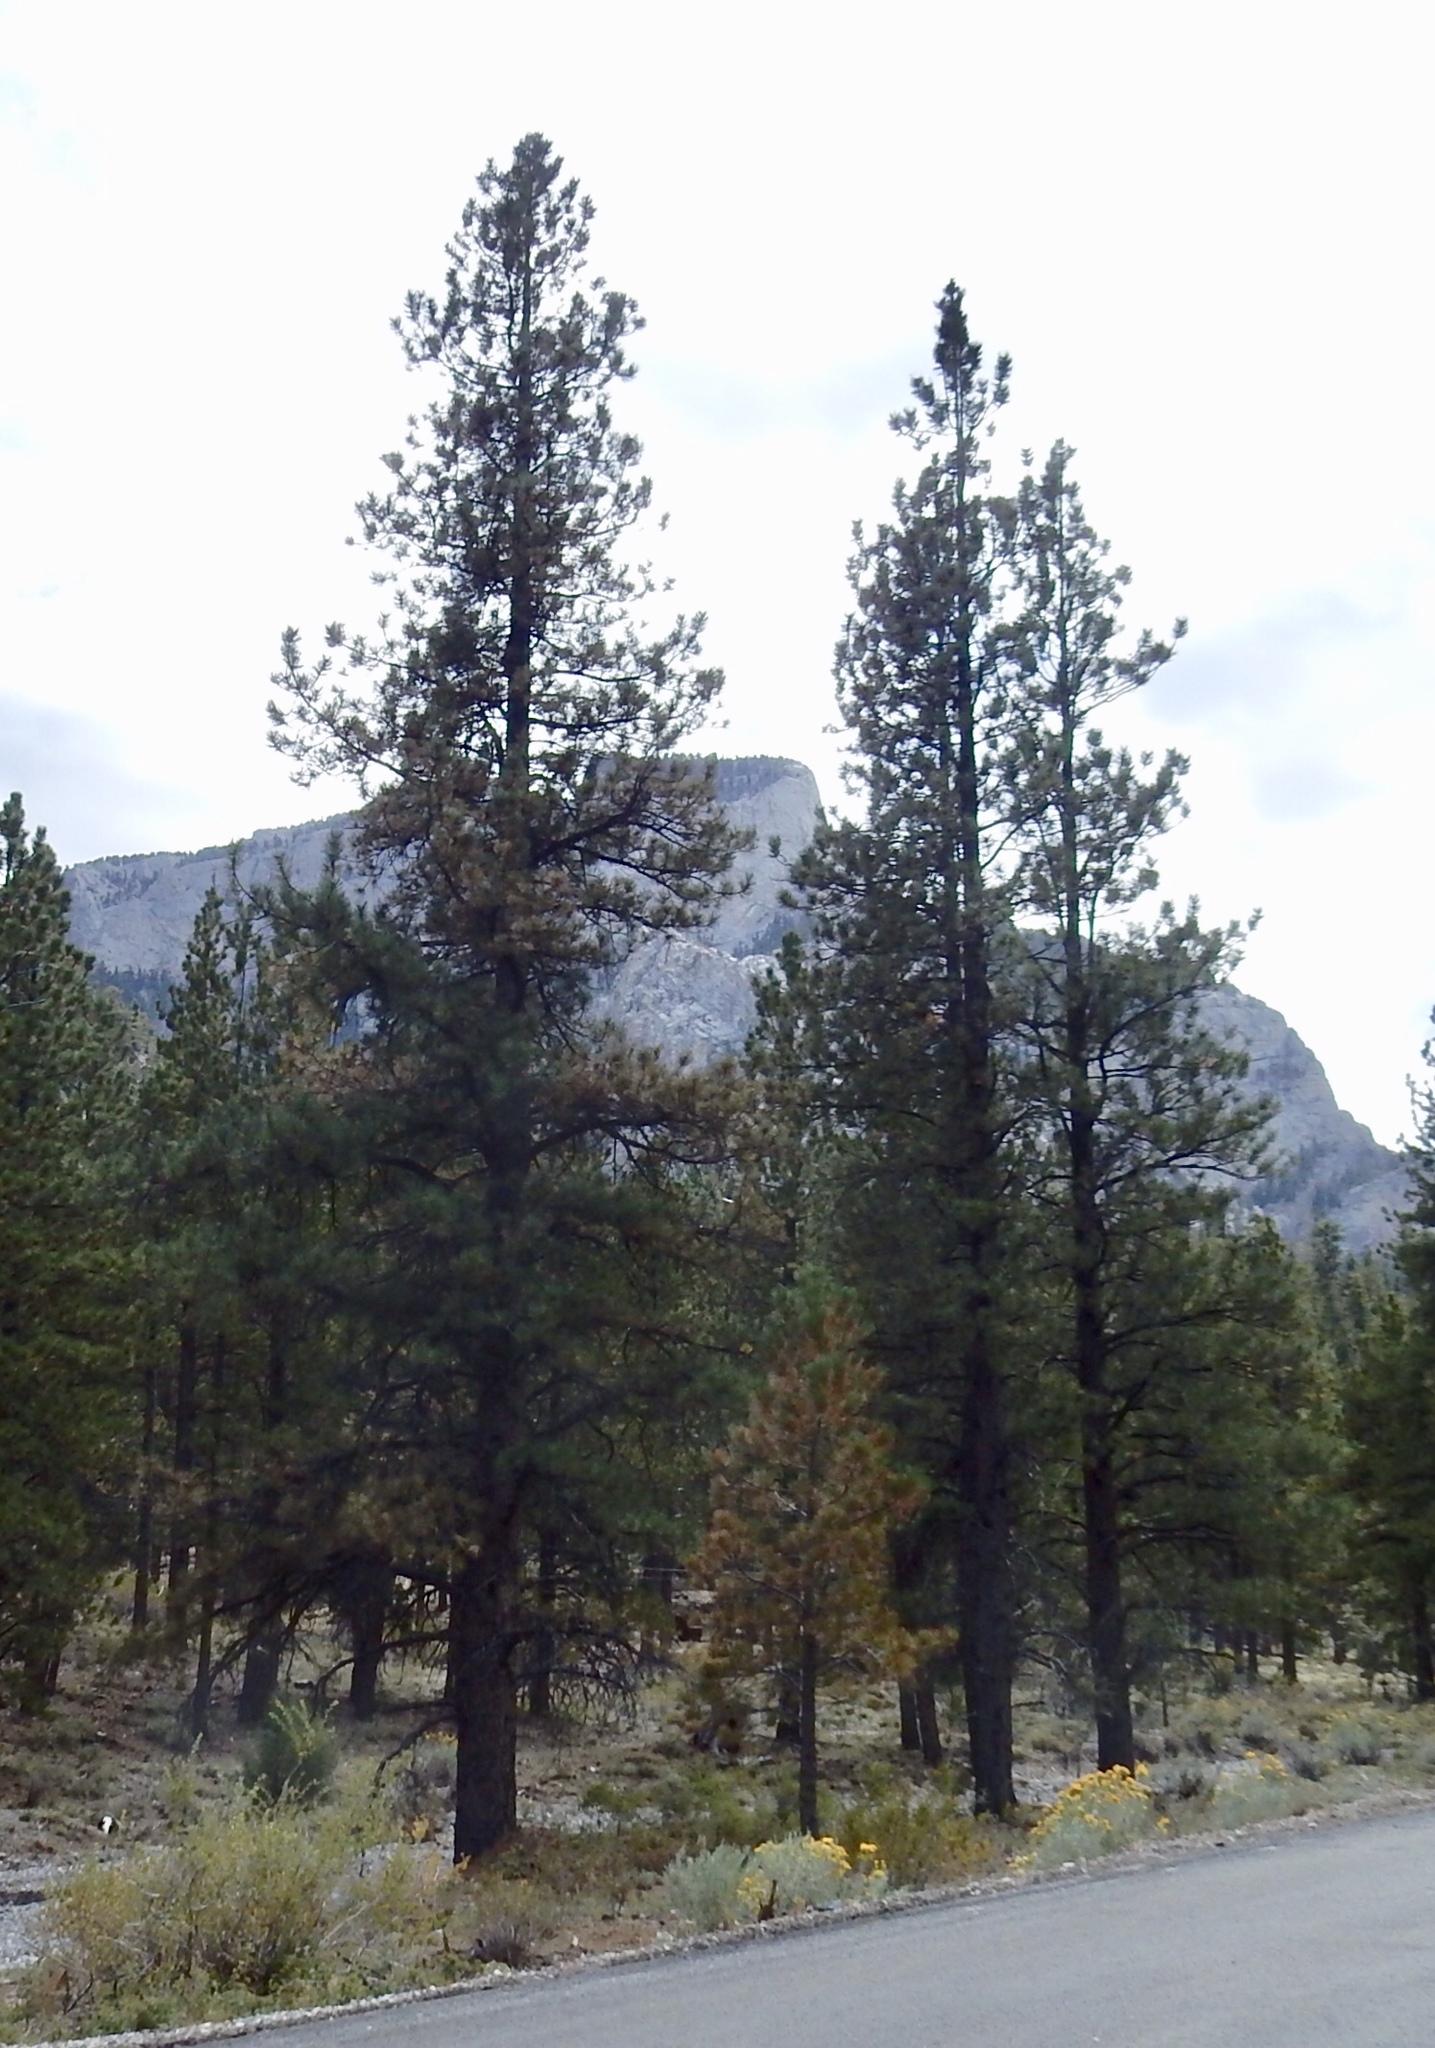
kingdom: Plantae
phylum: Tracheophyta
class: Pinopsida
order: Pinales
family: Pinaceae
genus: Pinus
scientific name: Pinus ponderosa
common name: Western yellow-pine
